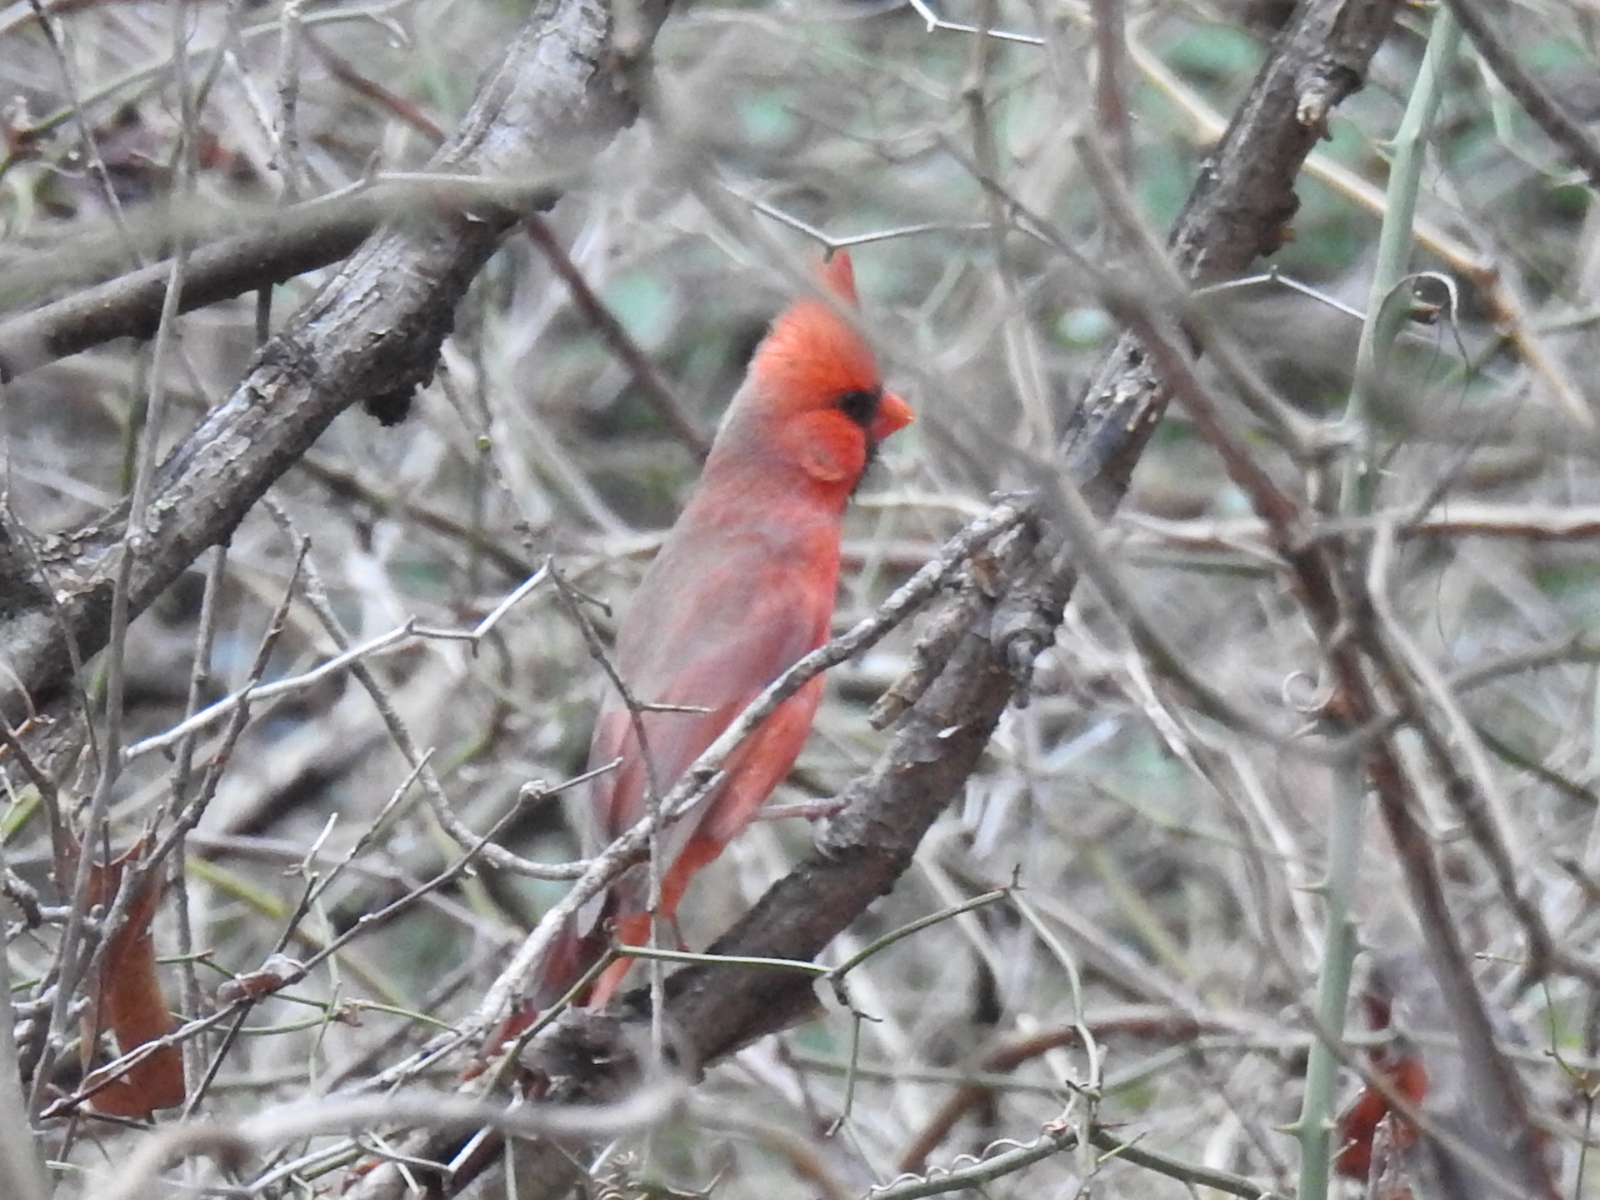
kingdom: Animalia
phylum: Chordata
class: Aves
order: Passeriformes
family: Cardinalidae
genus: Cardinalis
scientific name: Cardinalis cardinalis
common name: Northern cardinal
